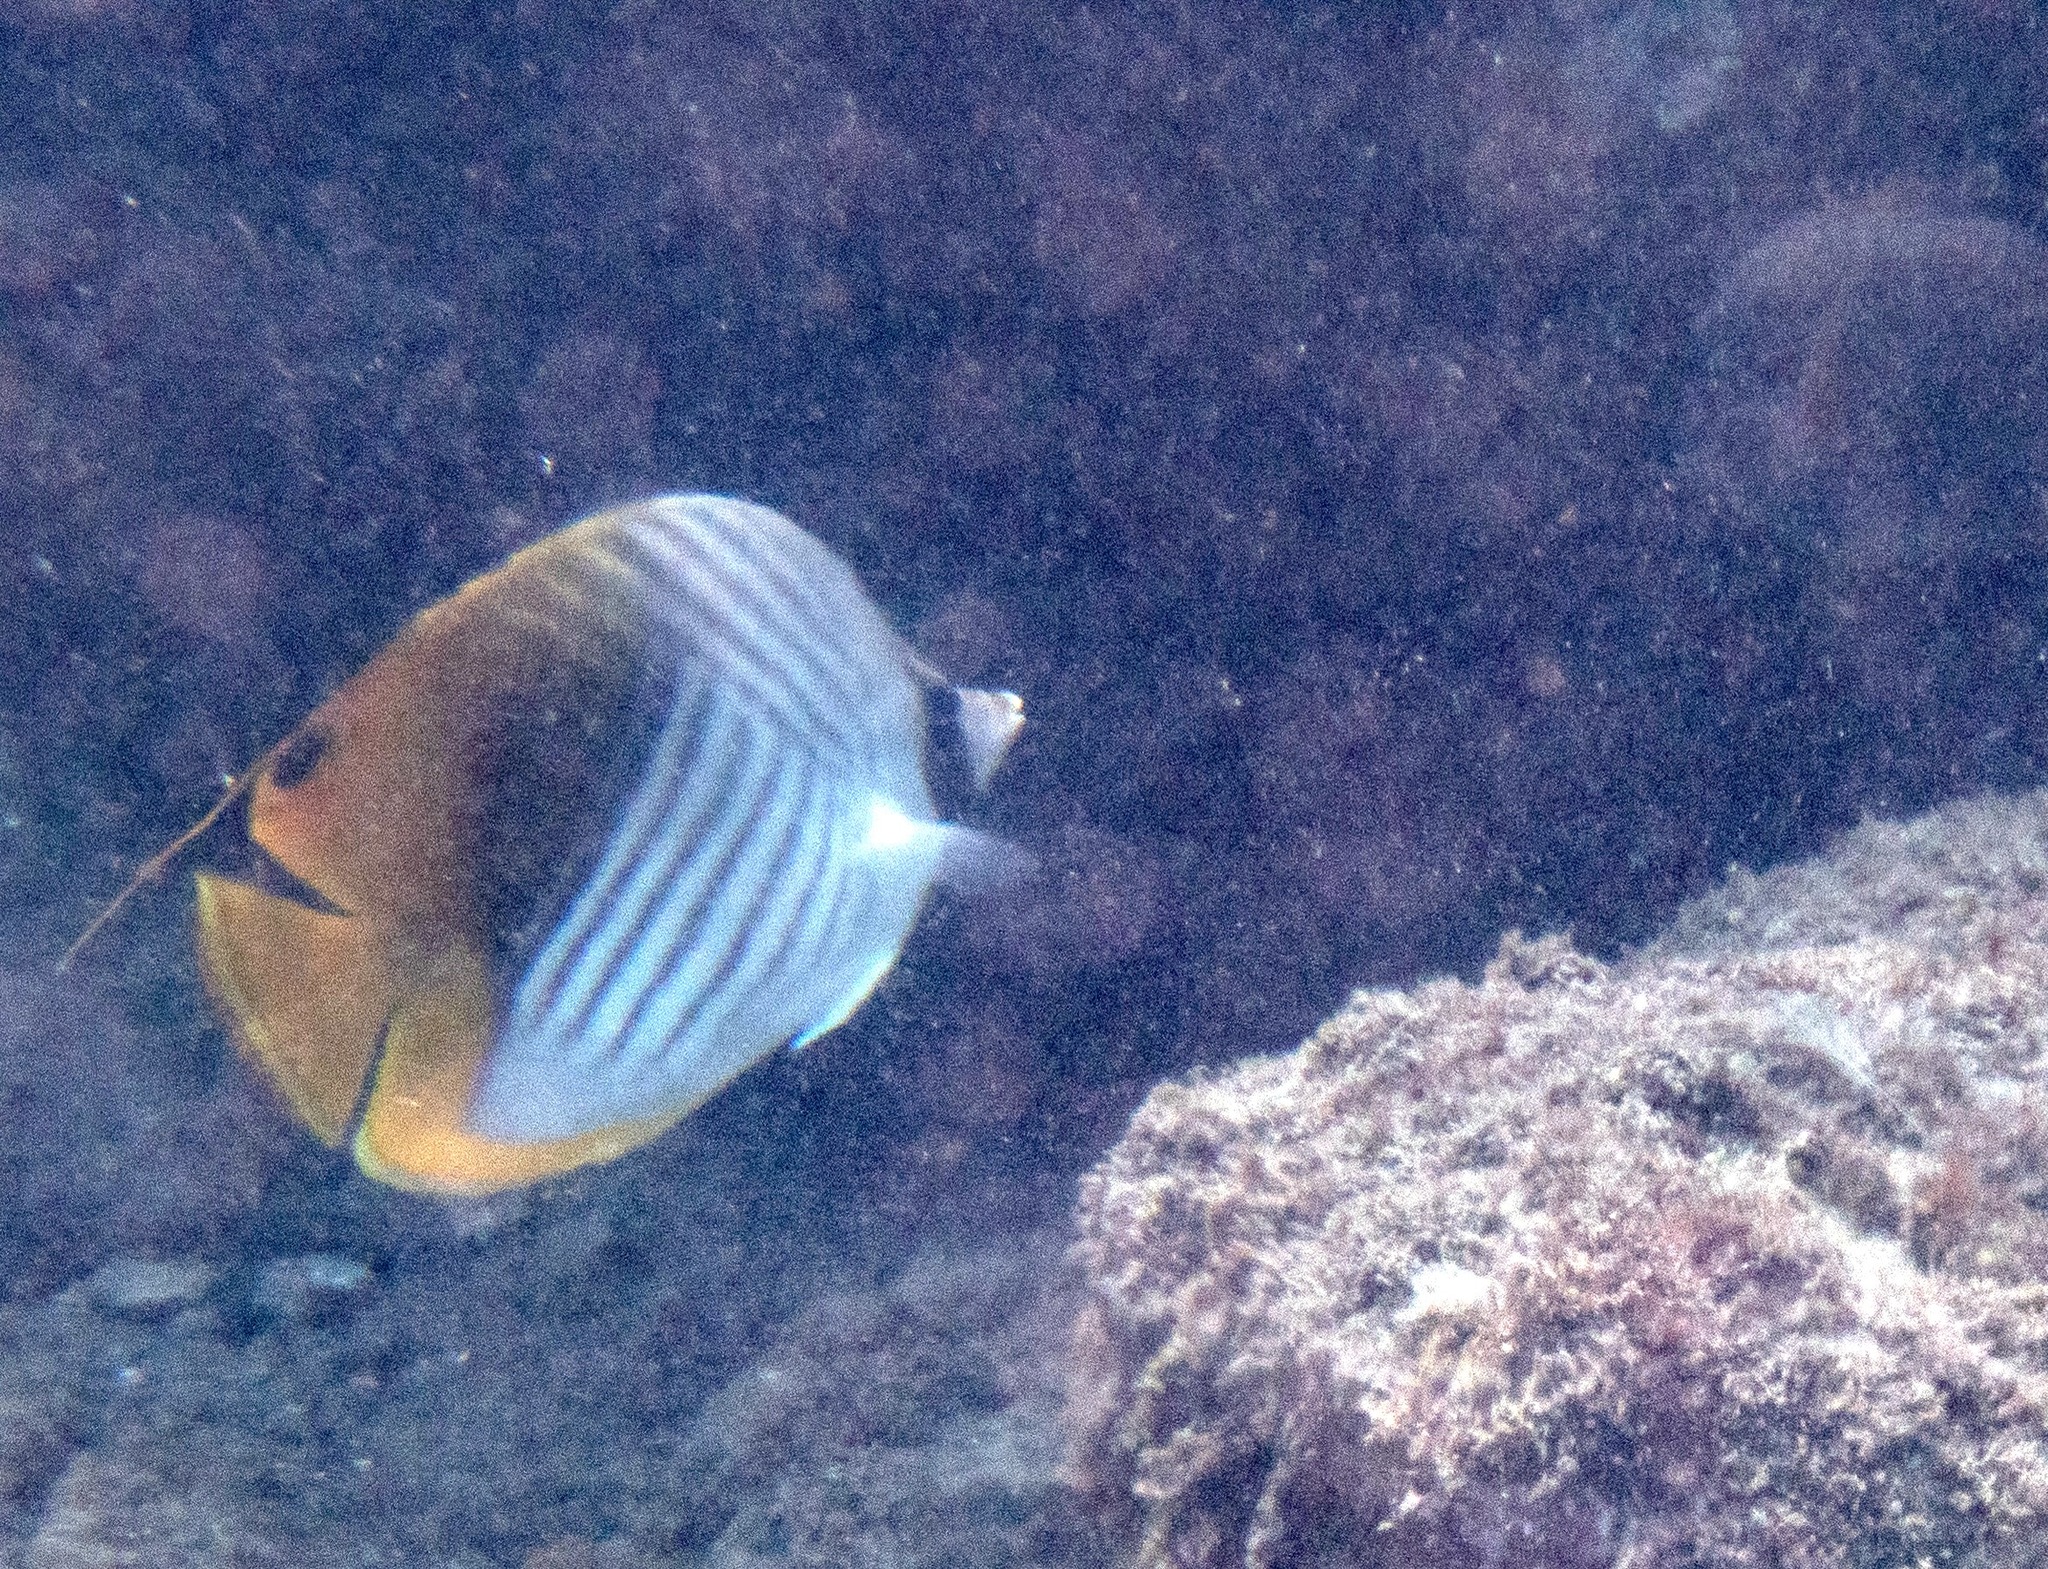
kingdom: Animalia
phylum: Chordata
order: Perciformes
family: Chaetodontidae
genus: Chaetodon
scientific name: Chaetodon auriga
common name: Threadfin butterflyfish
